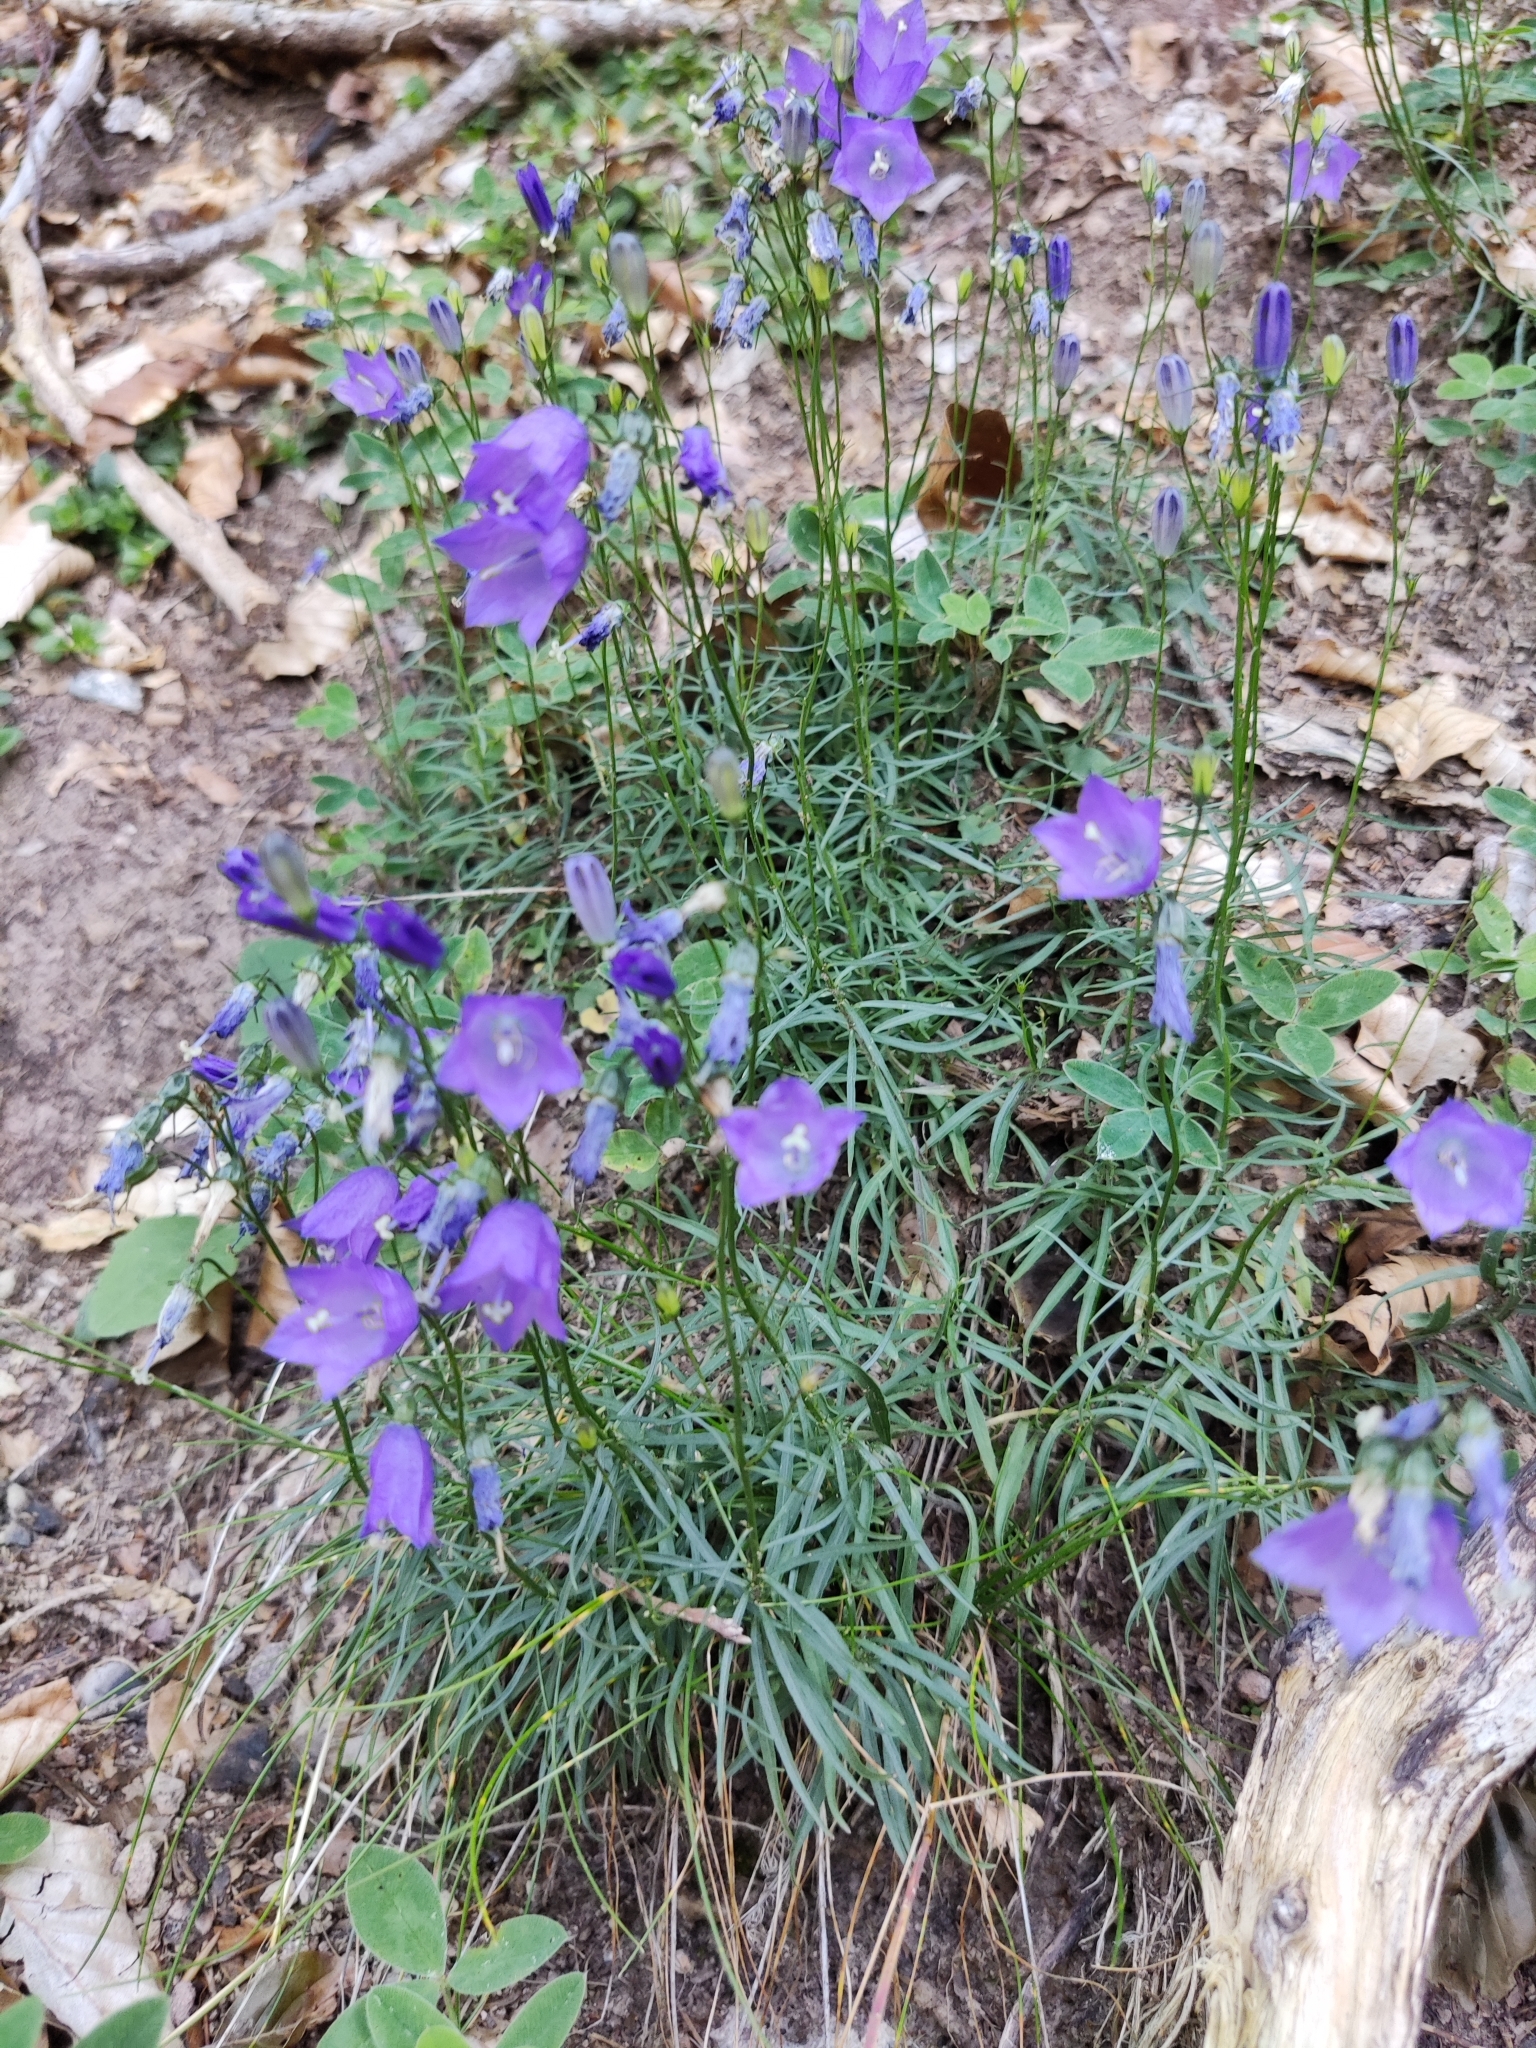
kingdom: Plantae
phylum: Tracheophyta
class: Magnoliopsida
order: Asterales
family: Campanulaceae
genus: Campanula
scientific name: Campanula rotundifolia
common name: Harebell
